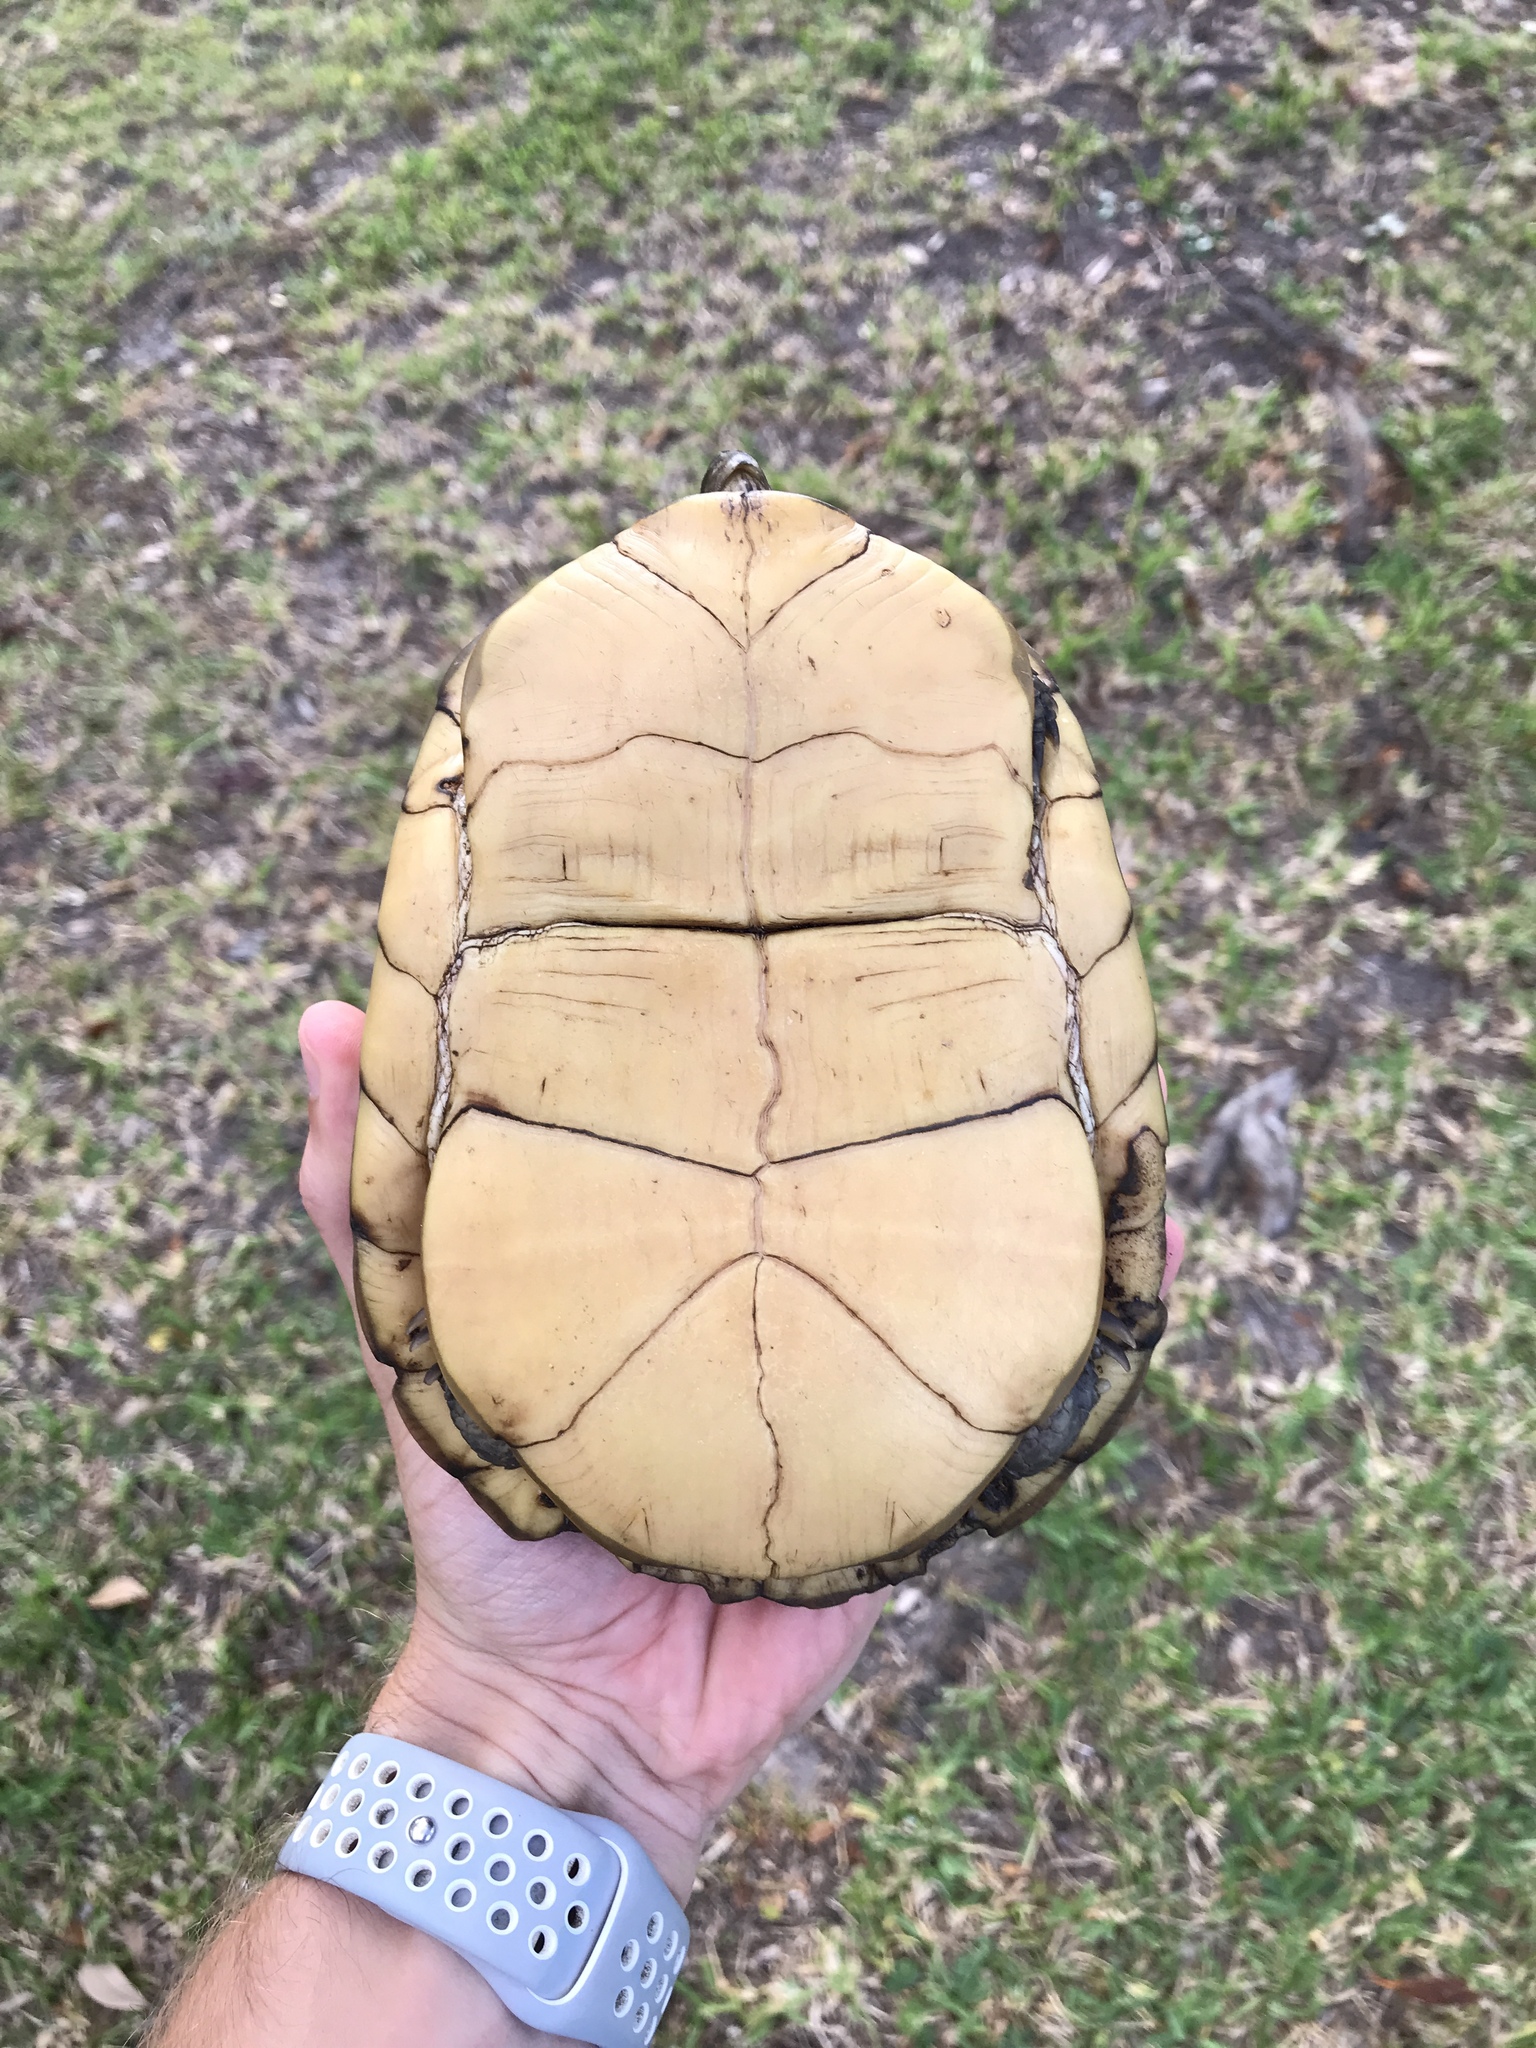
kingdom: Animalia
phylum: Chordata
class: Testudines
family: Emydidae
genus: Terrapene
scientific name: Terrapene carolina
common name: Common box turtle
